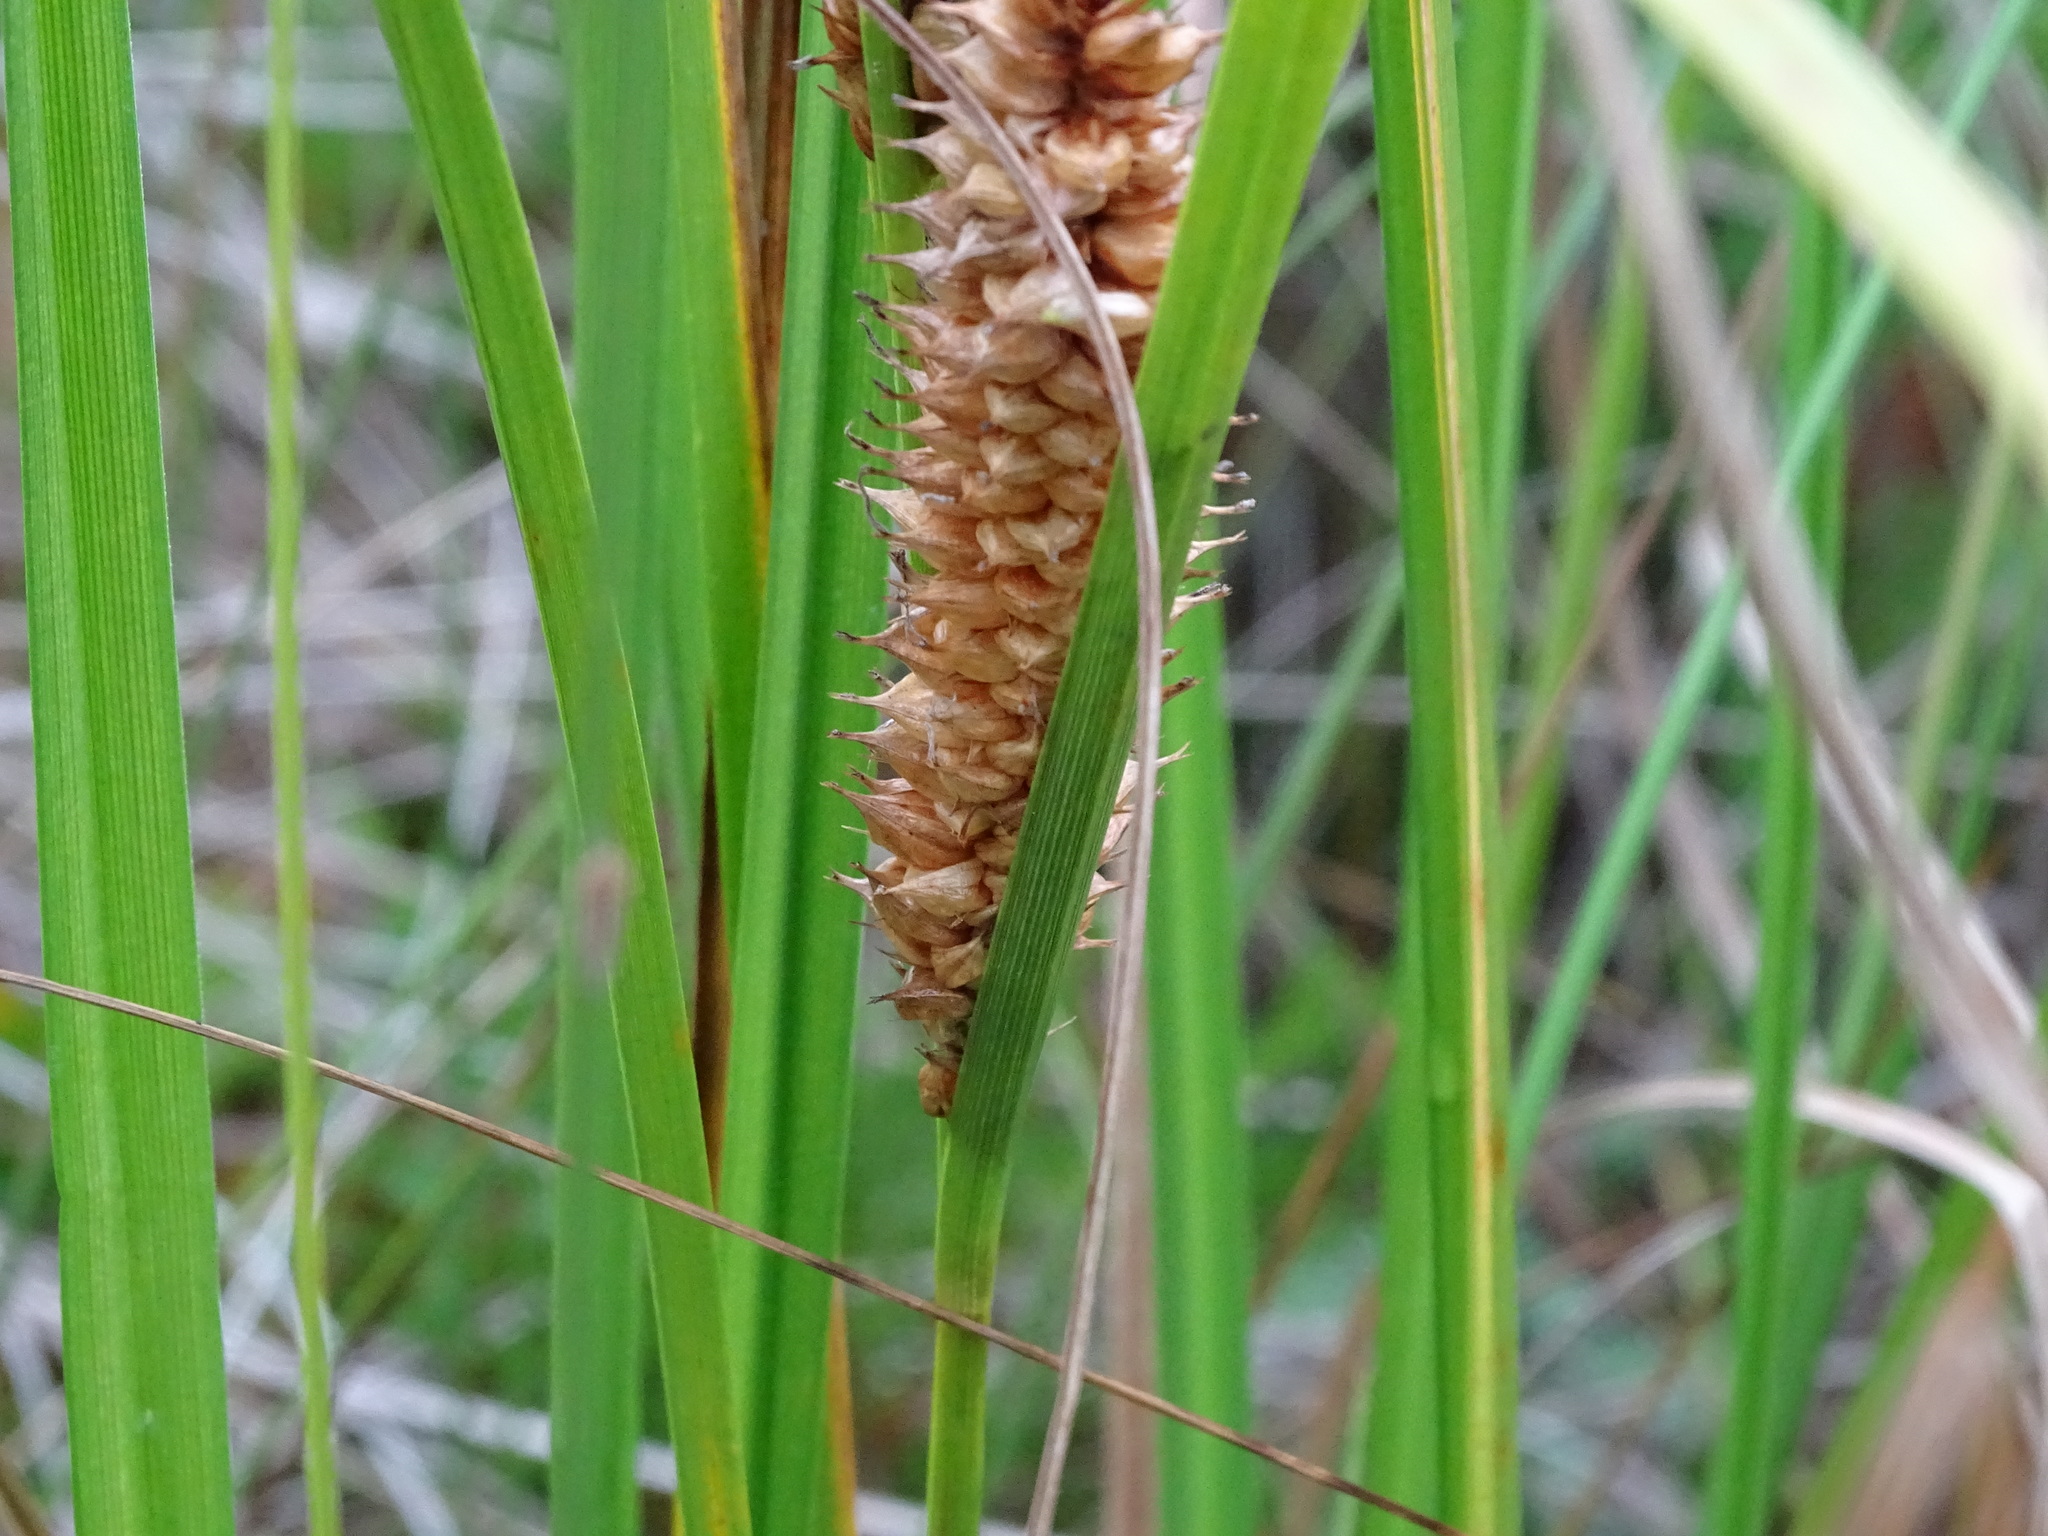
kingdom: Plantae
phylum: Tracheophyta
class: Liliopsida
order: Poales
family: Cyperaceae
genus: Carex
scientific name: Carex utriculata
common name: Beaked sedge
